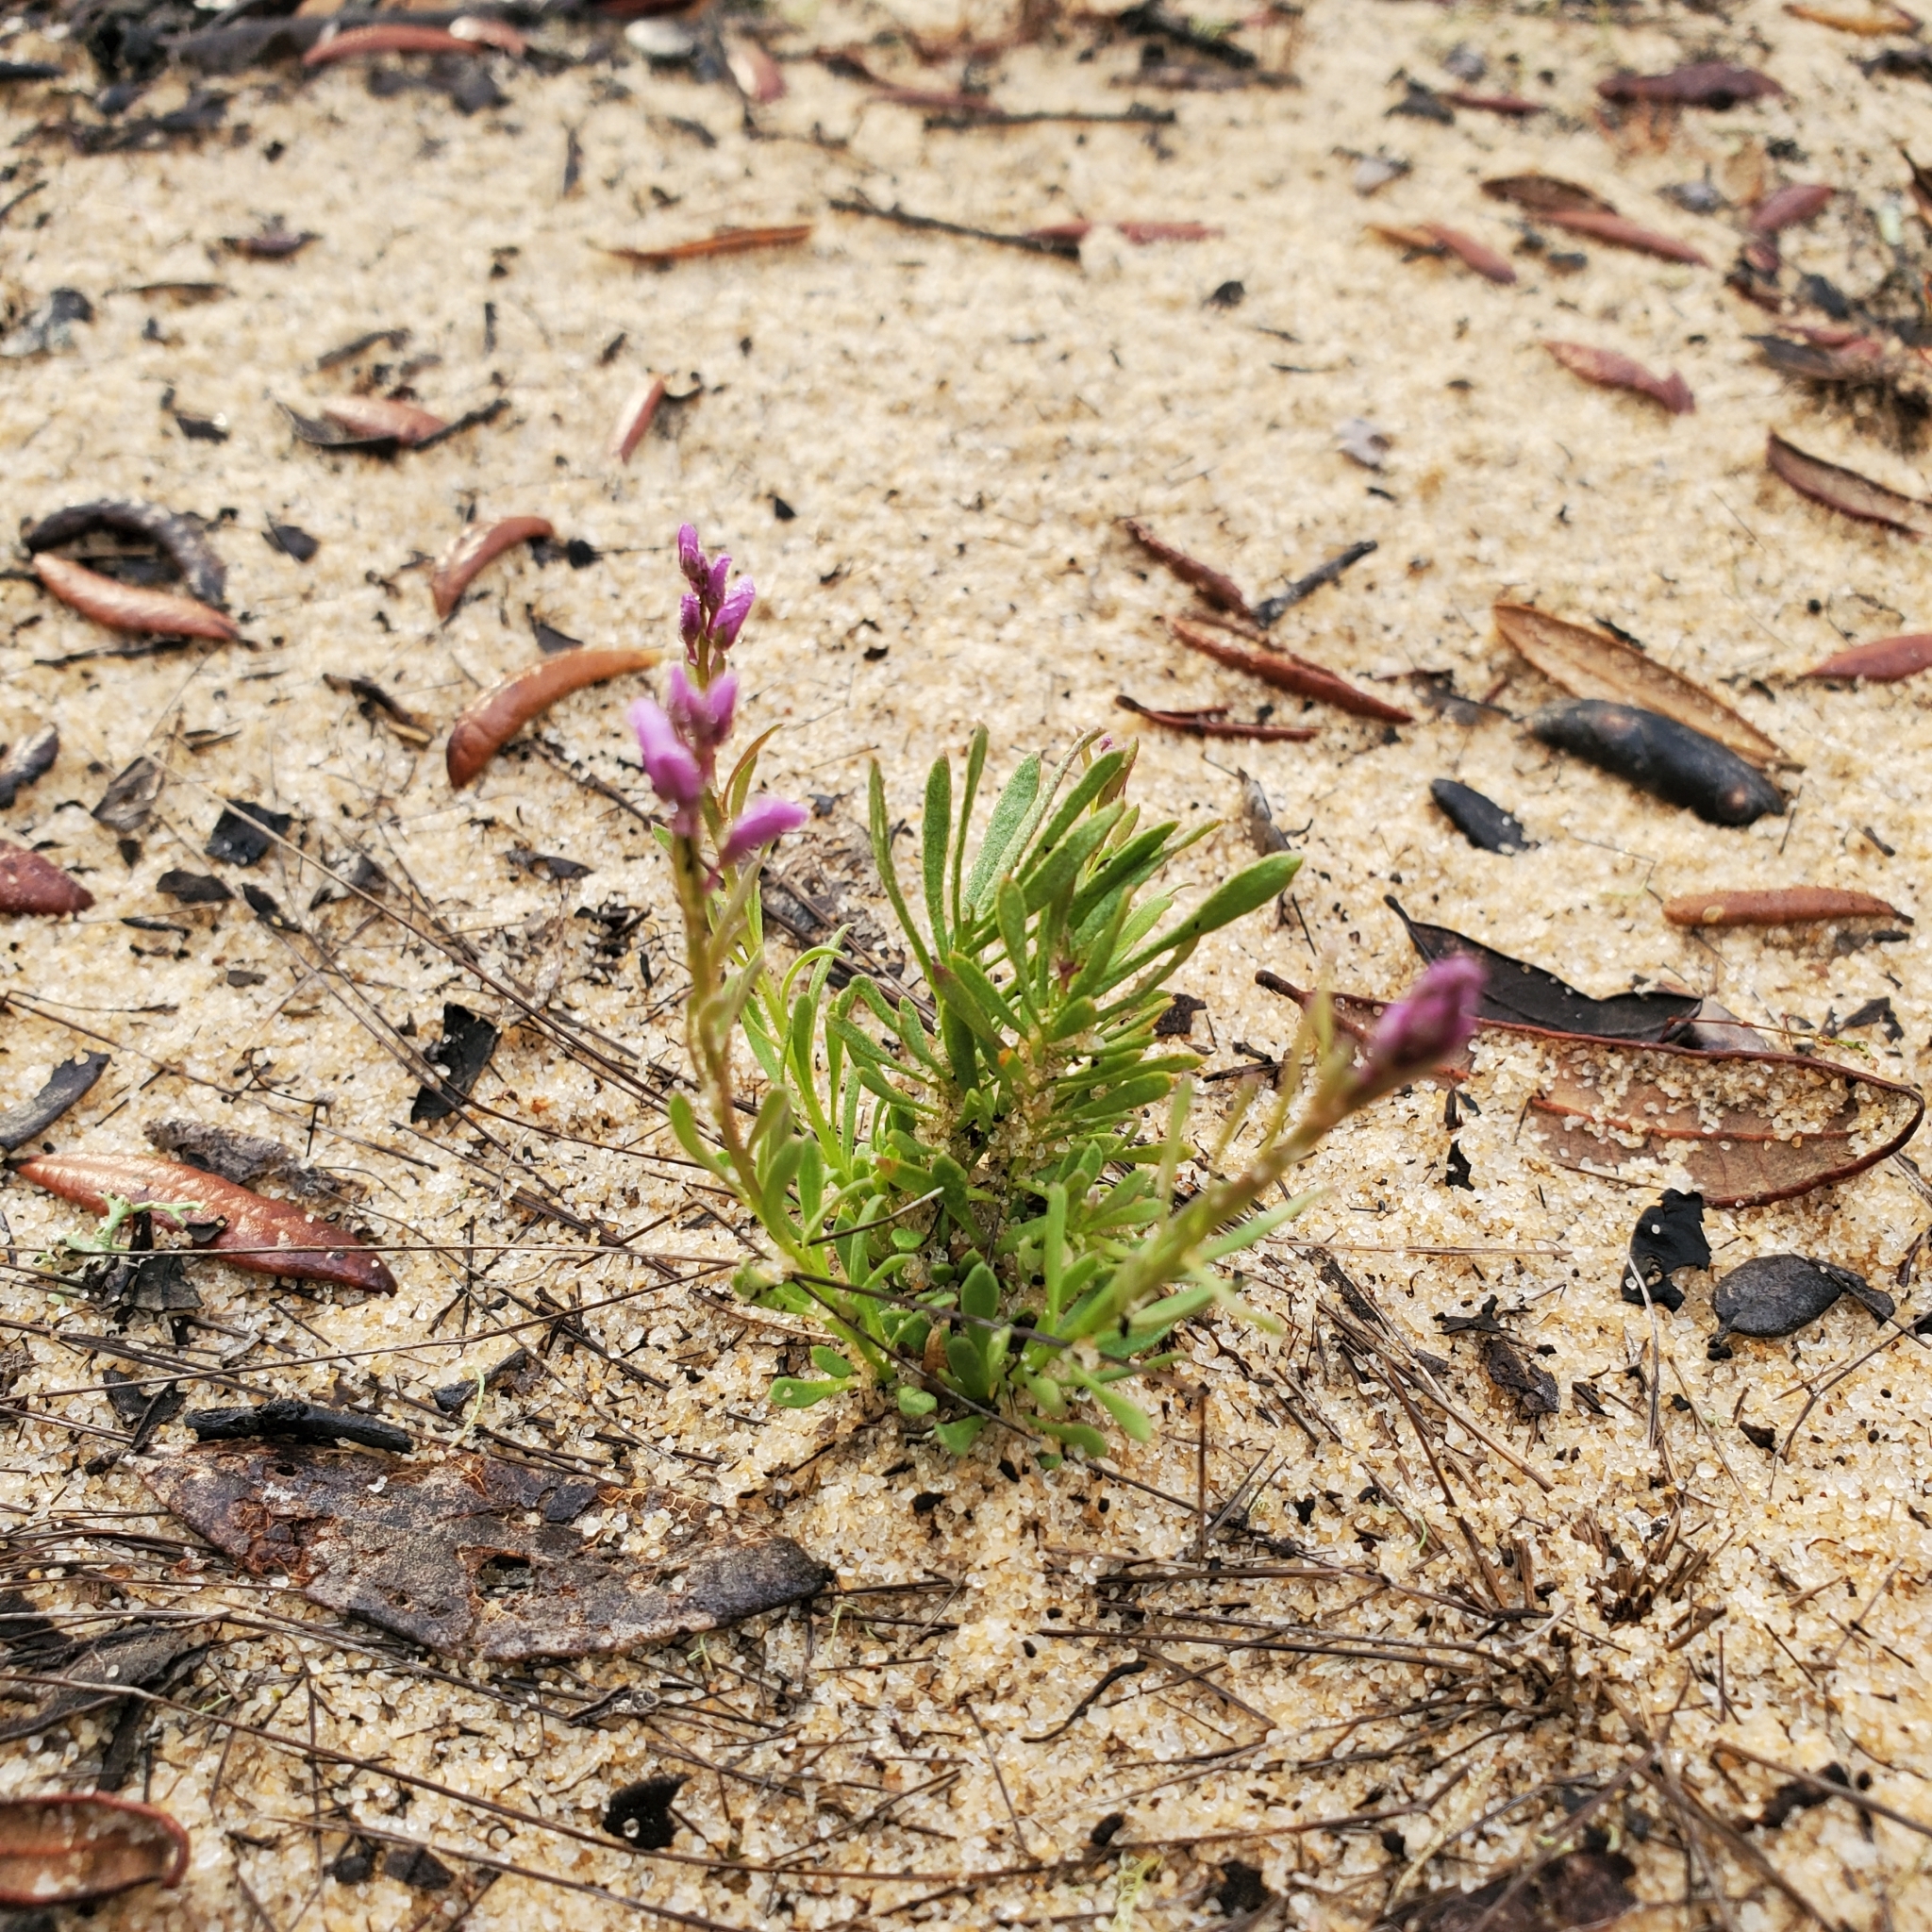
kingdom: Plantae
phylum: Tracheophyta
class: Magnoliopsida
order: Fabales
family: Polygalaceae
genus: Polygala
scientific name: Polygala lewtonii
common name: Lewton's polygala
